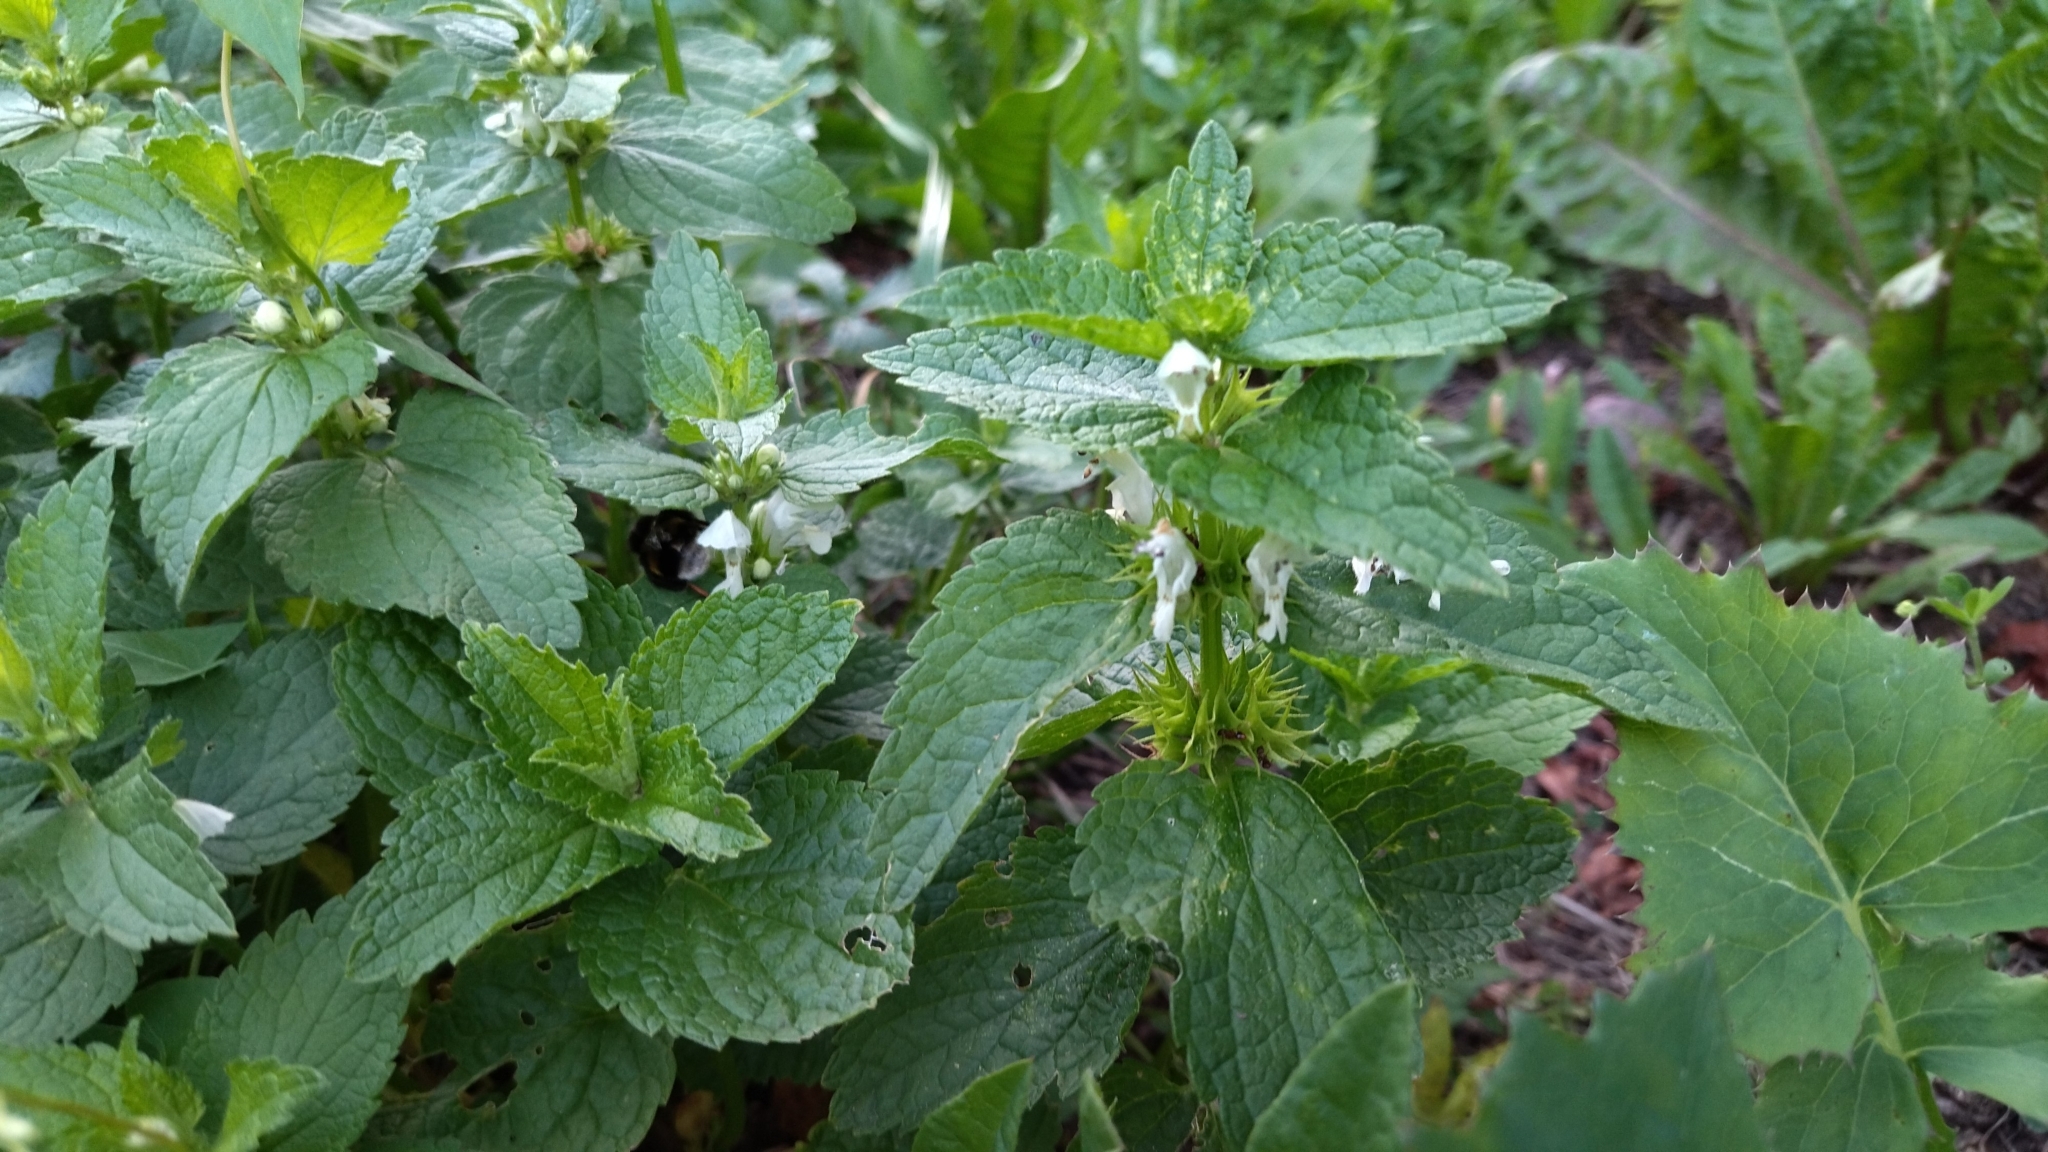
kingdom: Plantae
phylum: Tracheophyta
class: Magnoliopsida
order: Lamiales
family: Lamiaceae
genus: Lamium
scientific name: Lamium album
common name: White dead-nettle
